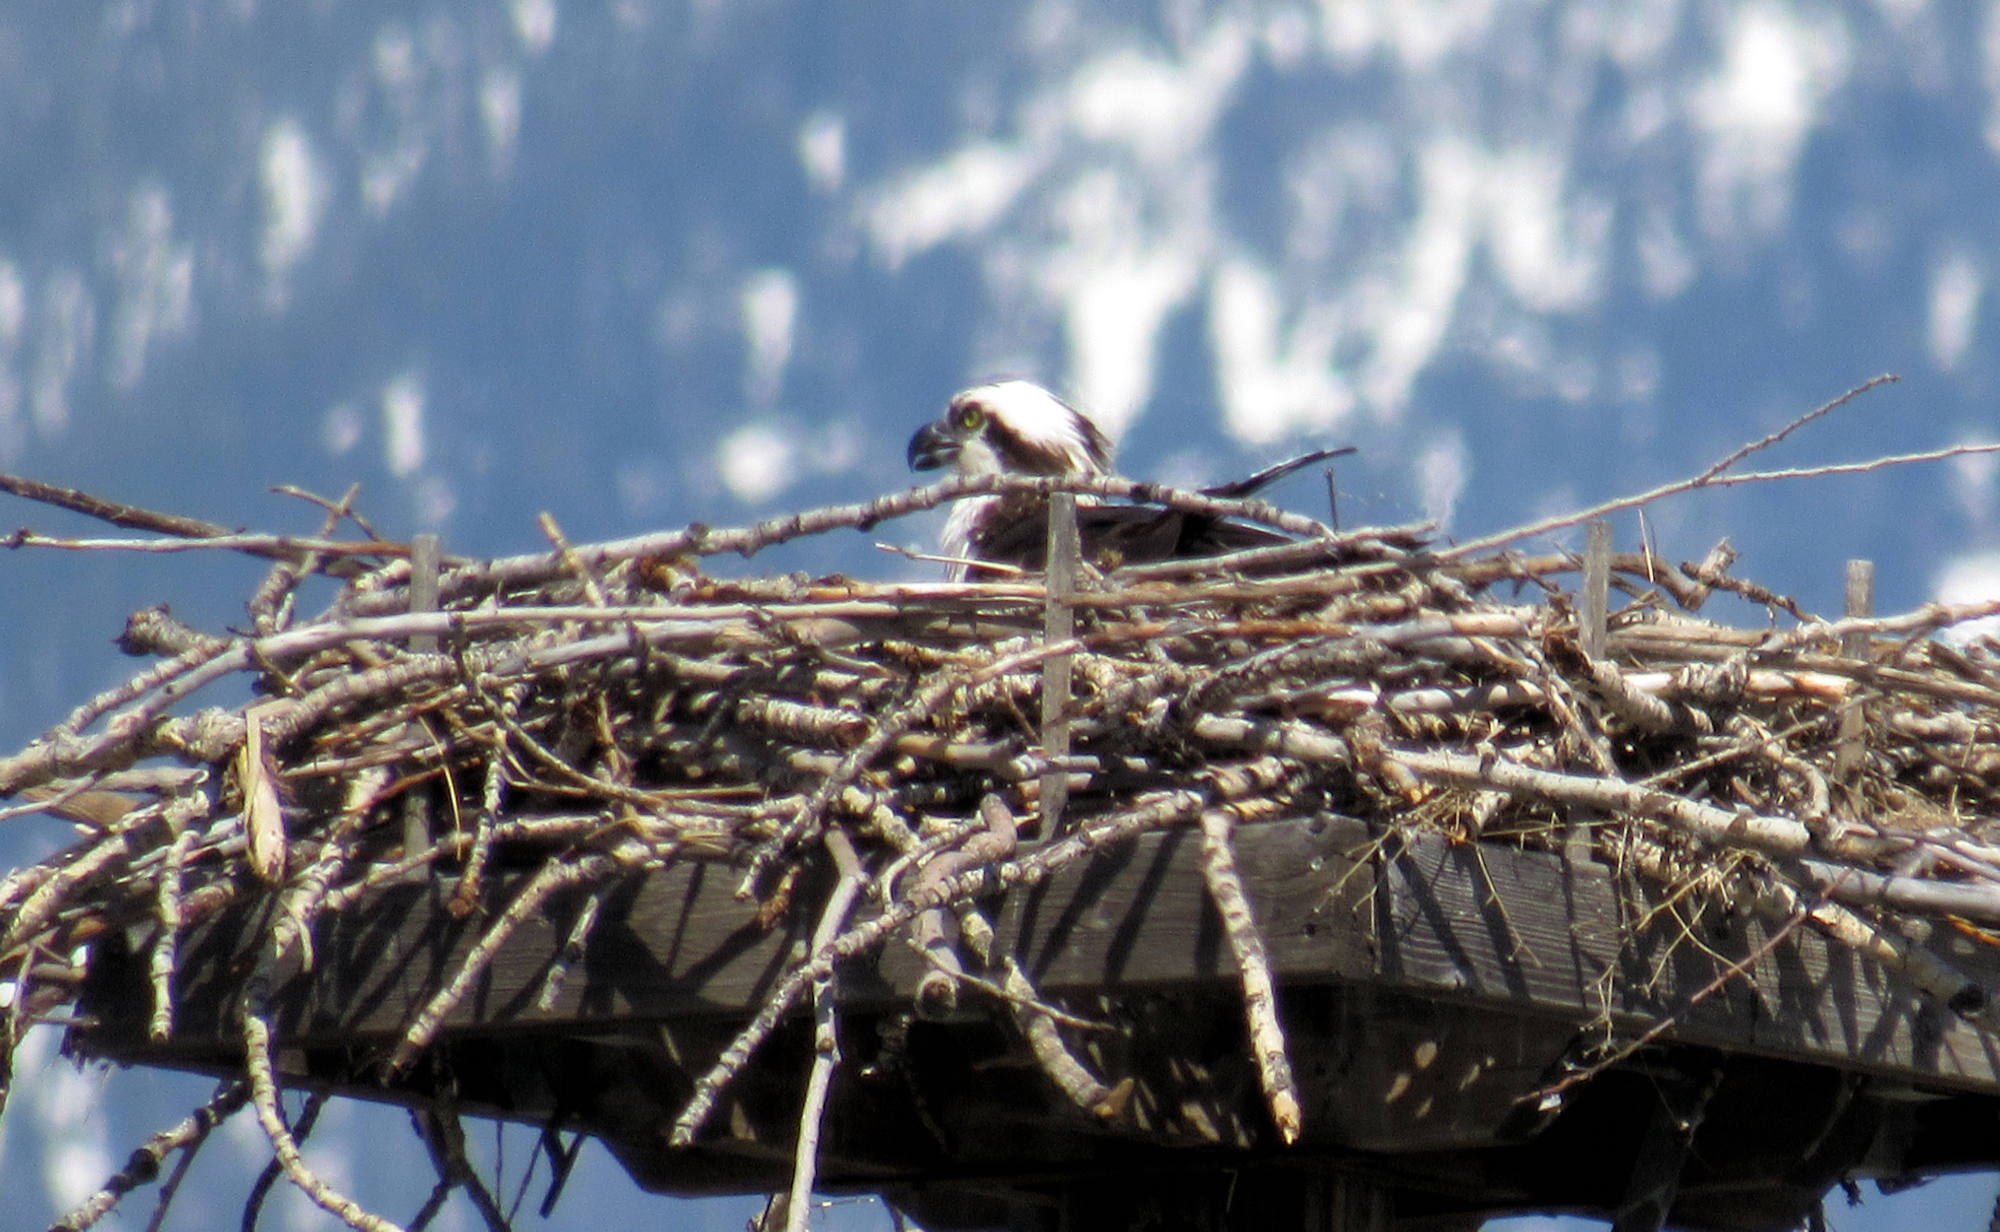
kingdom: Animalia
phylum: Chordata
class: Aves
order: Accipitriformes
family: Pandionidae
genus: Pandion
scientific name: Pandion haliaetus
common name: Osprey
